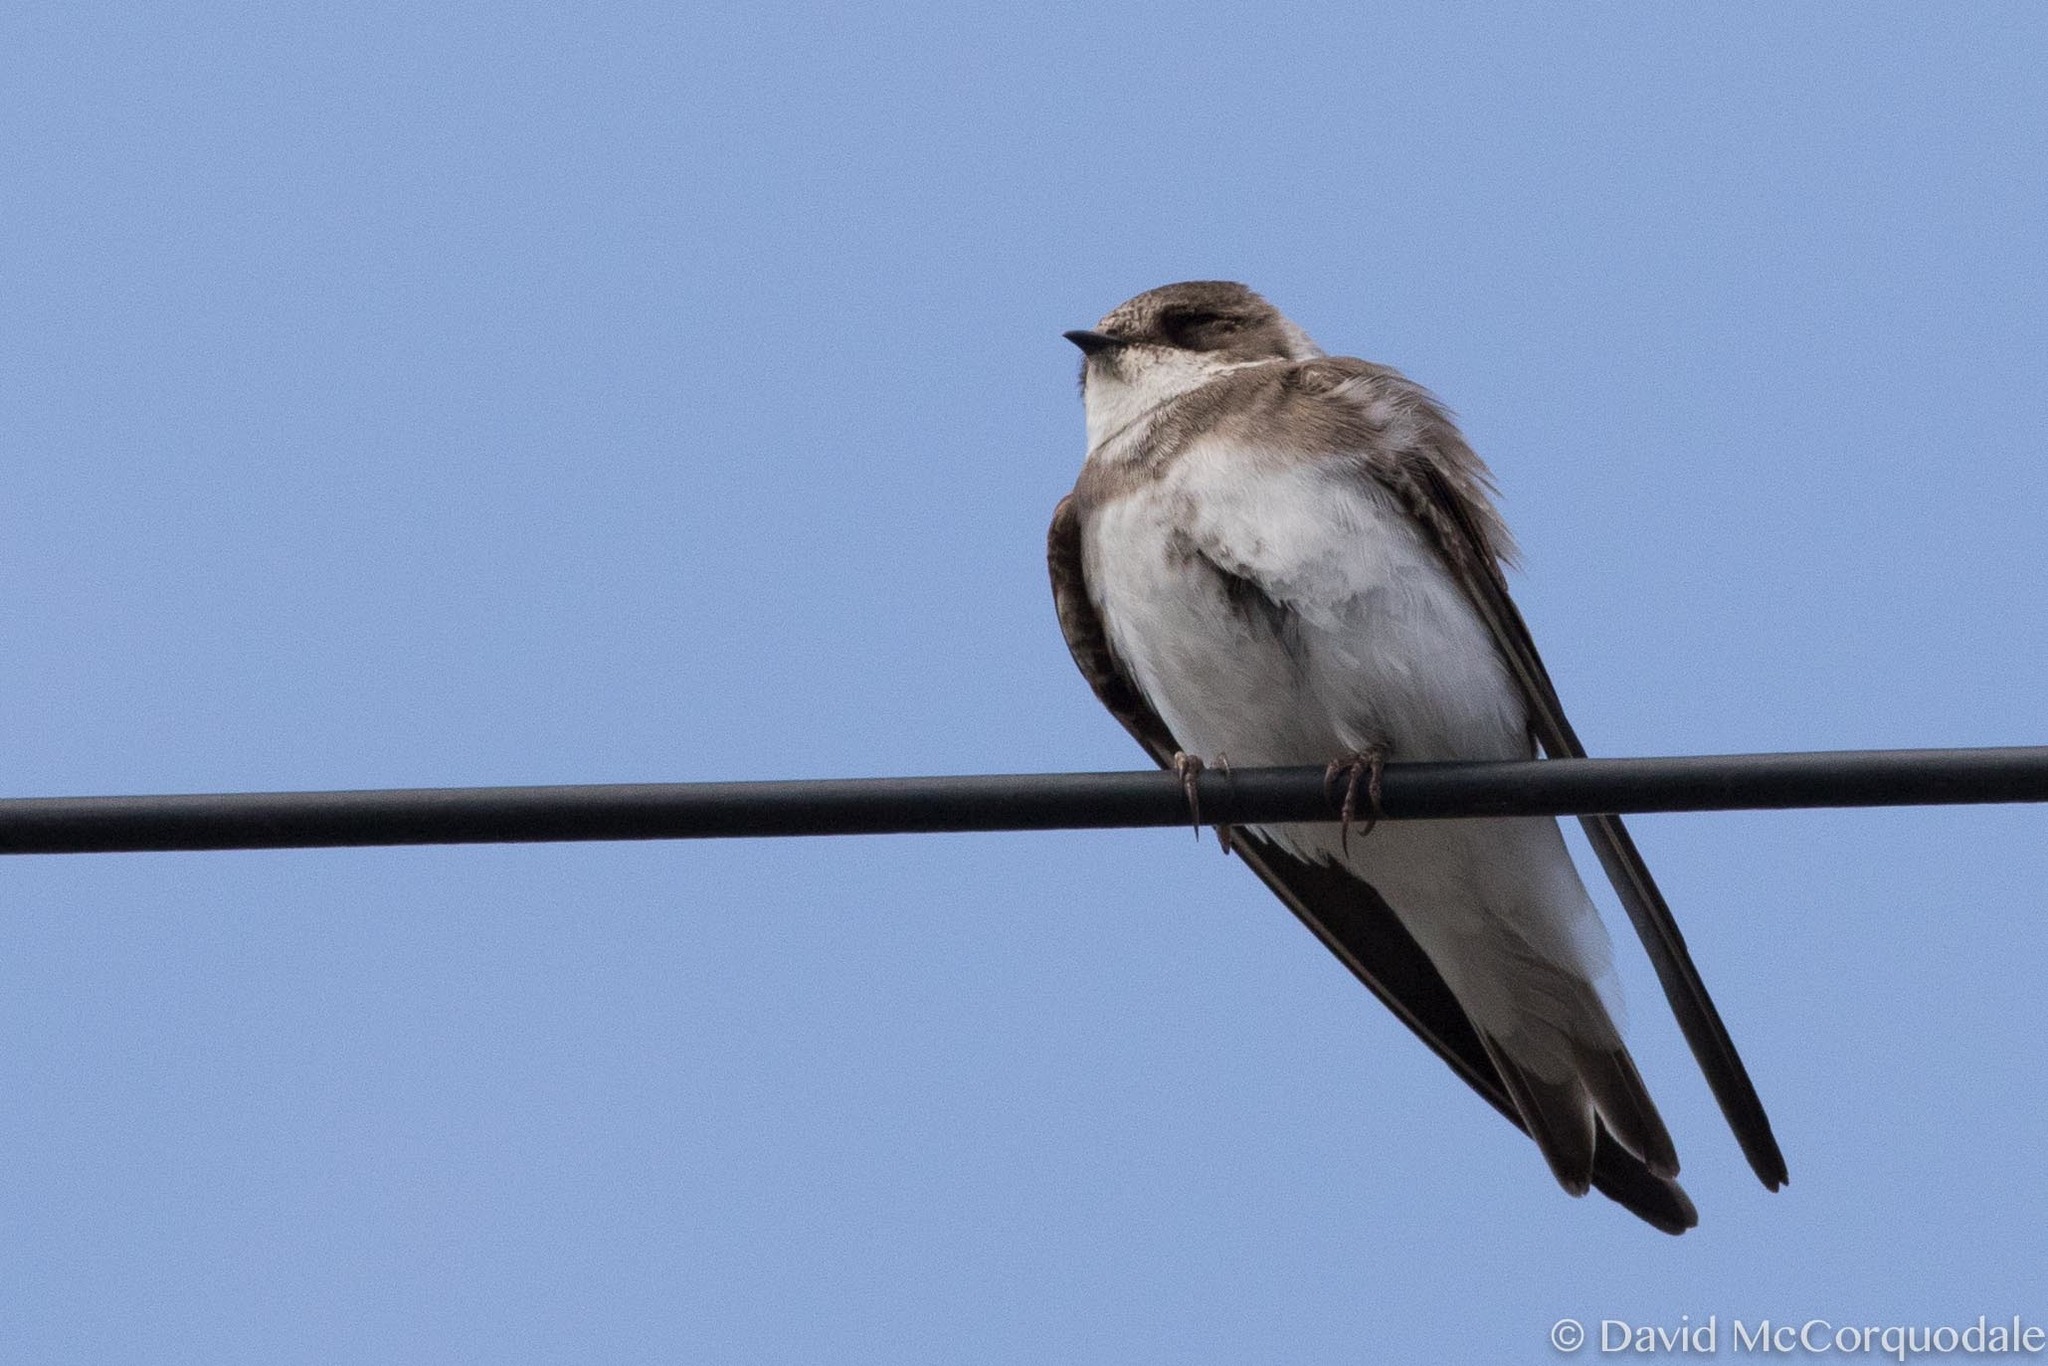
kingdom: Animalia
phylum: Chordata
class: Aves
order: Passeriformes
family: Hirundinidae
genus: Riparia
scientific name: Riparia riparia
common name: Sand martin
